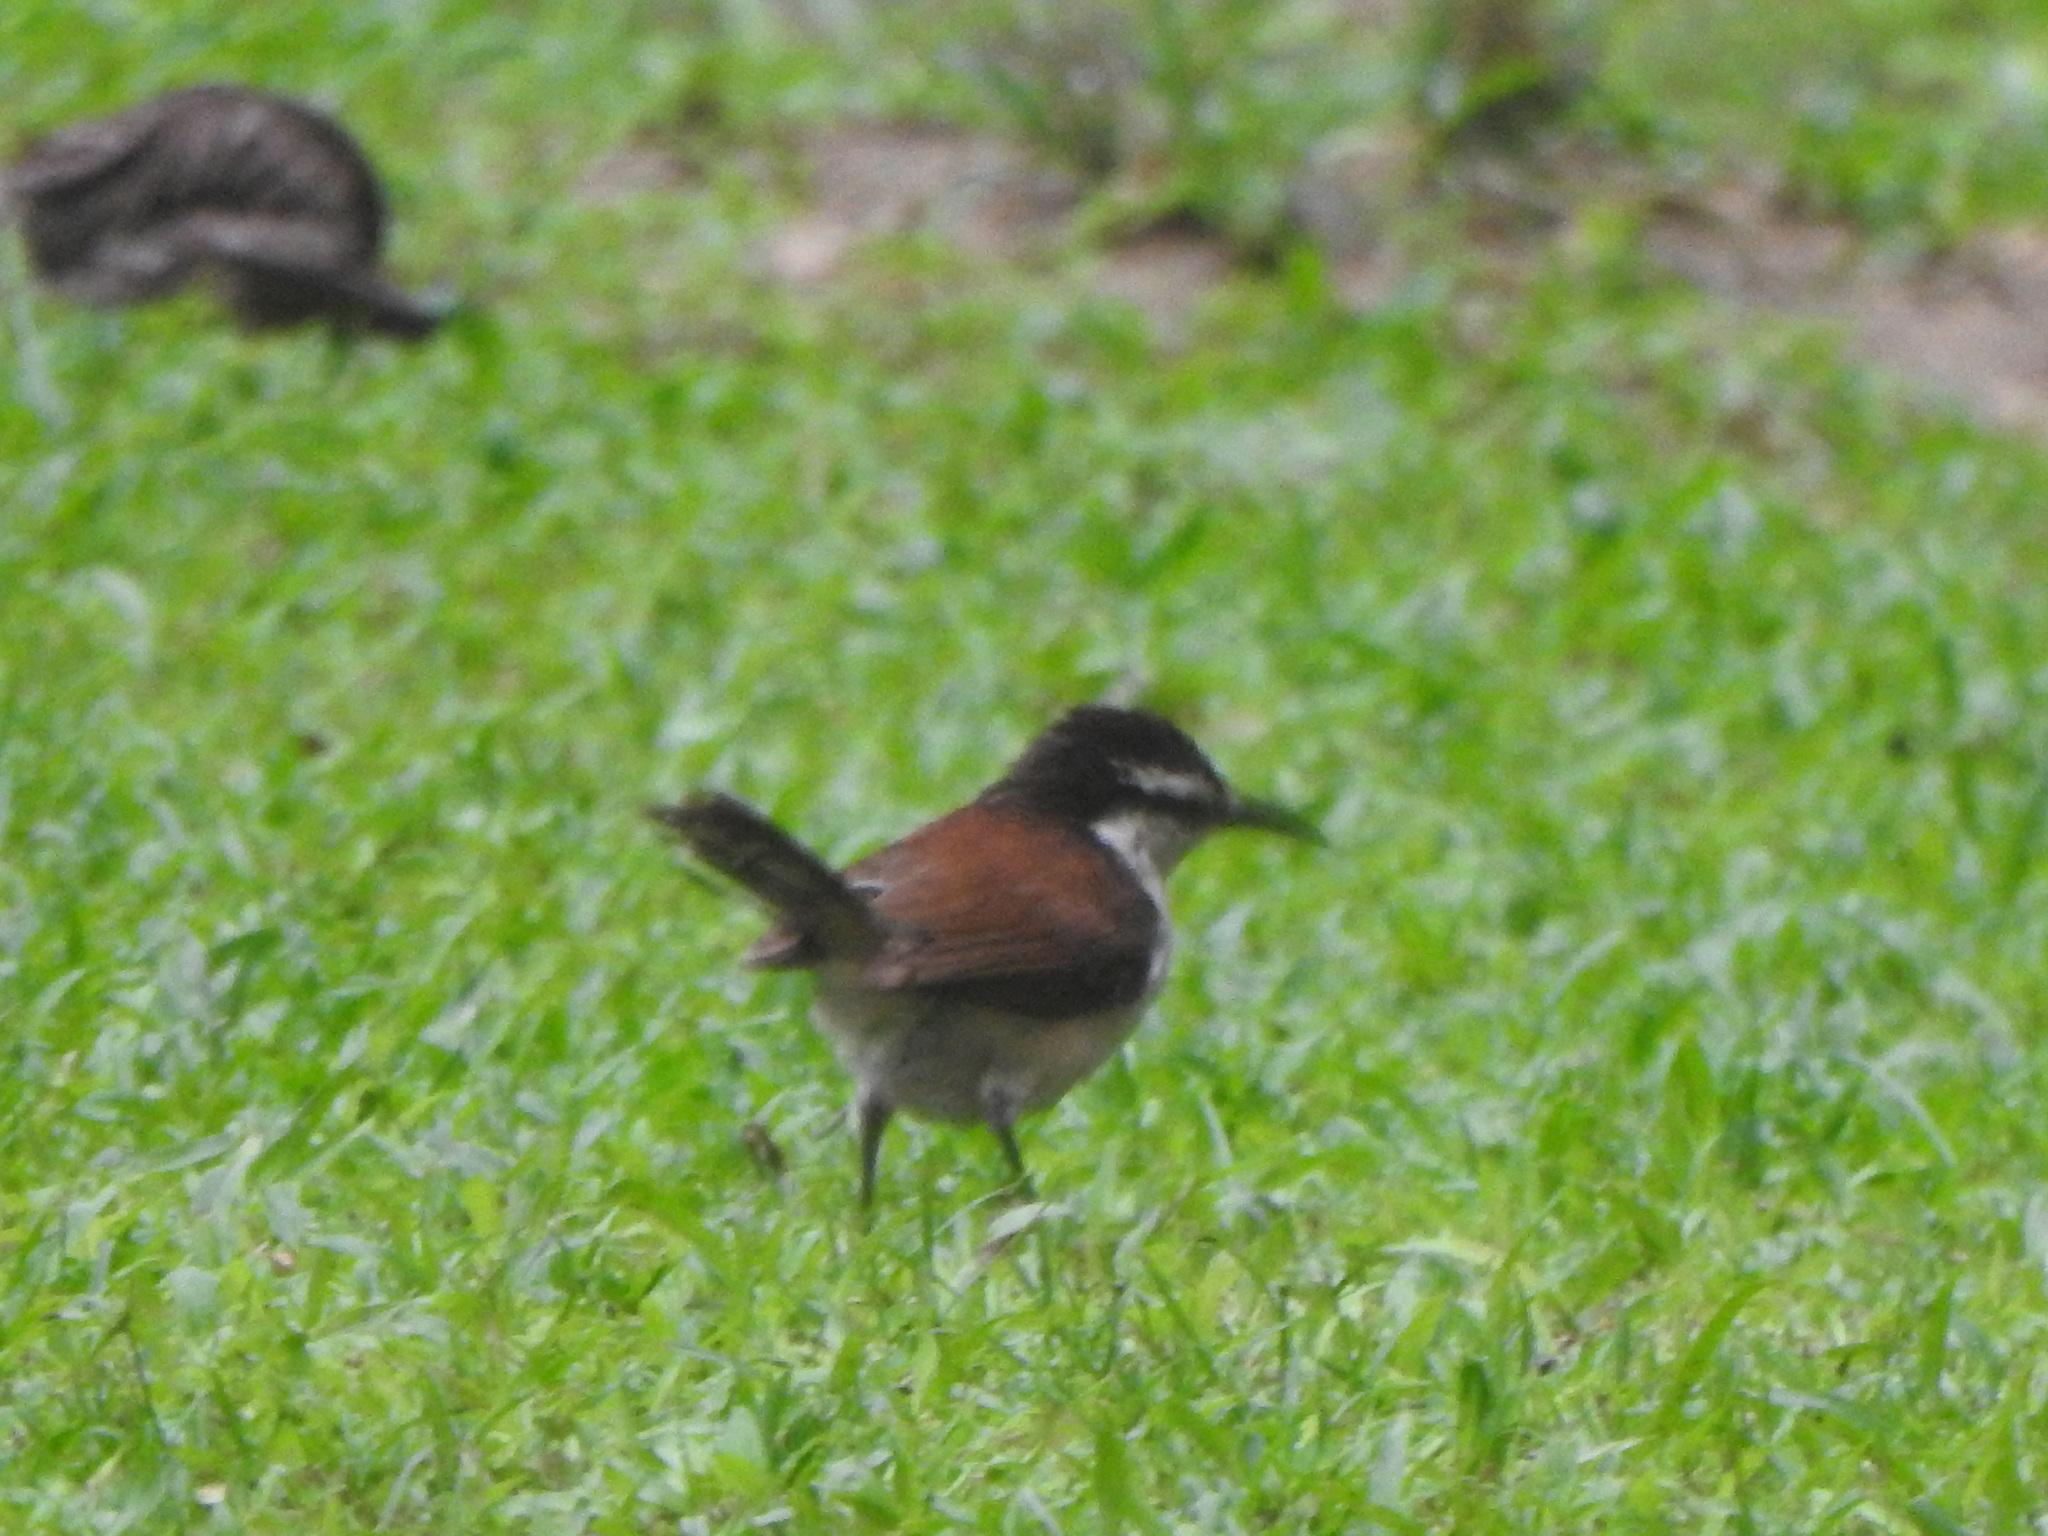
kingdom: Animalia
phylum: Chordata
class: Aves
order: Passeriformes
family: Troglodytidae
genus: Campylorhynchus
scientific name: Campylorhynchus griseus
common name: Bicolored wren
